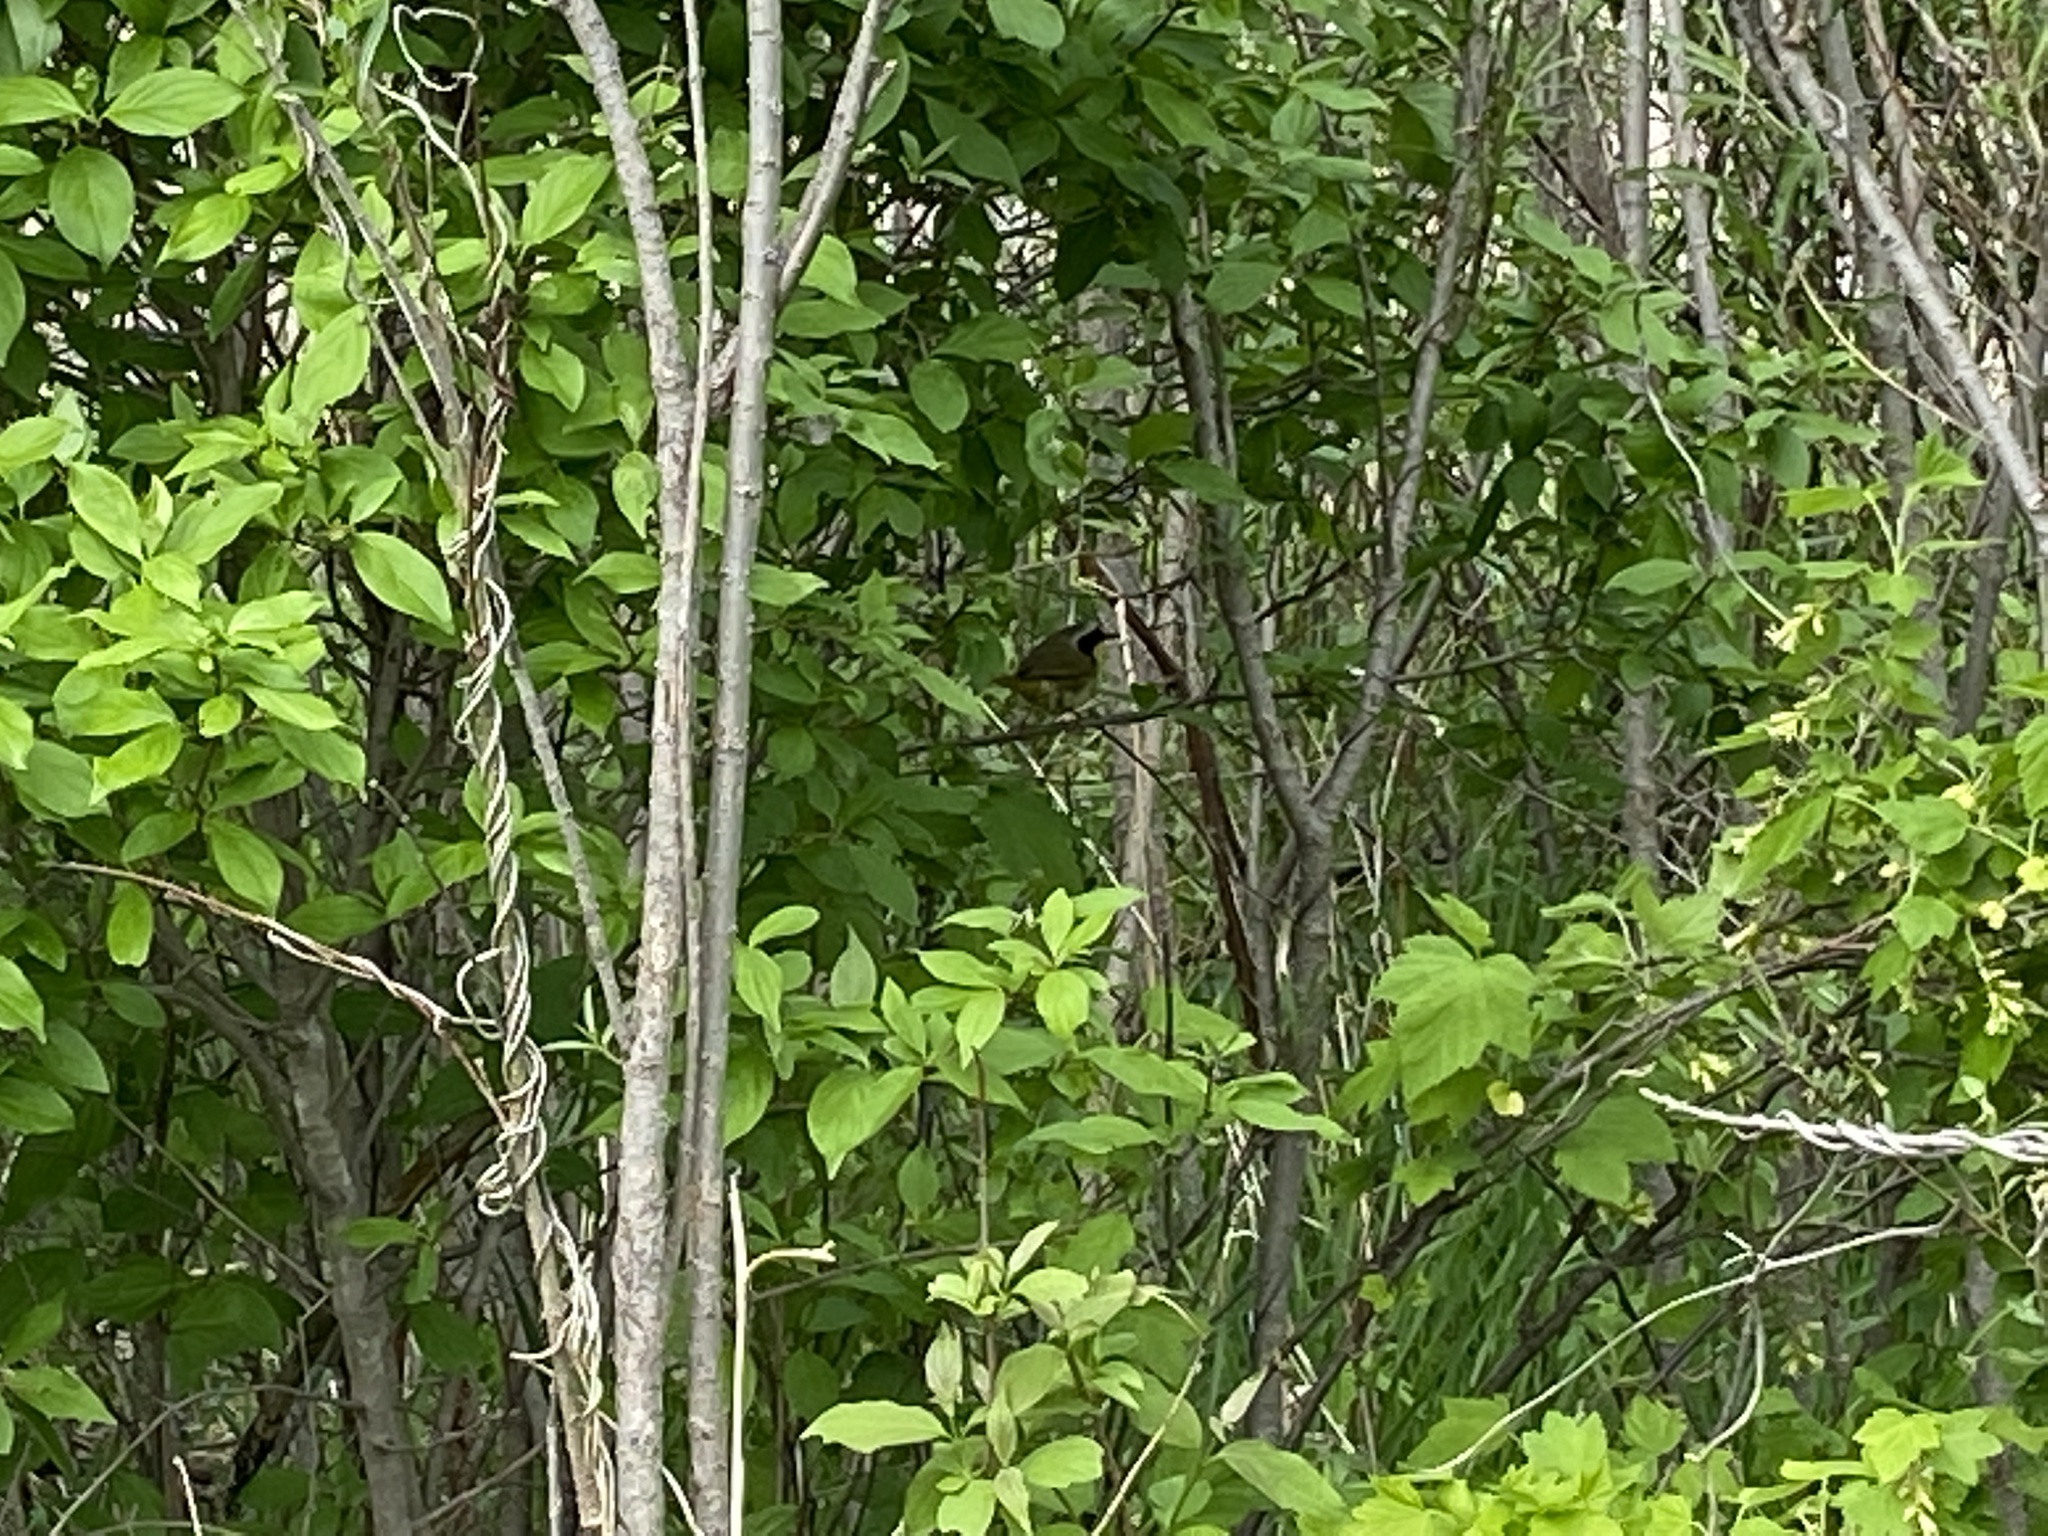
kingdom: Animalia
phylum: Chordata
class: Aves
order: Passeriformes
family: Parulidae
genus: Geothlypis
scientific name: Geothlypis trichas
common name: Common yellowthroat
